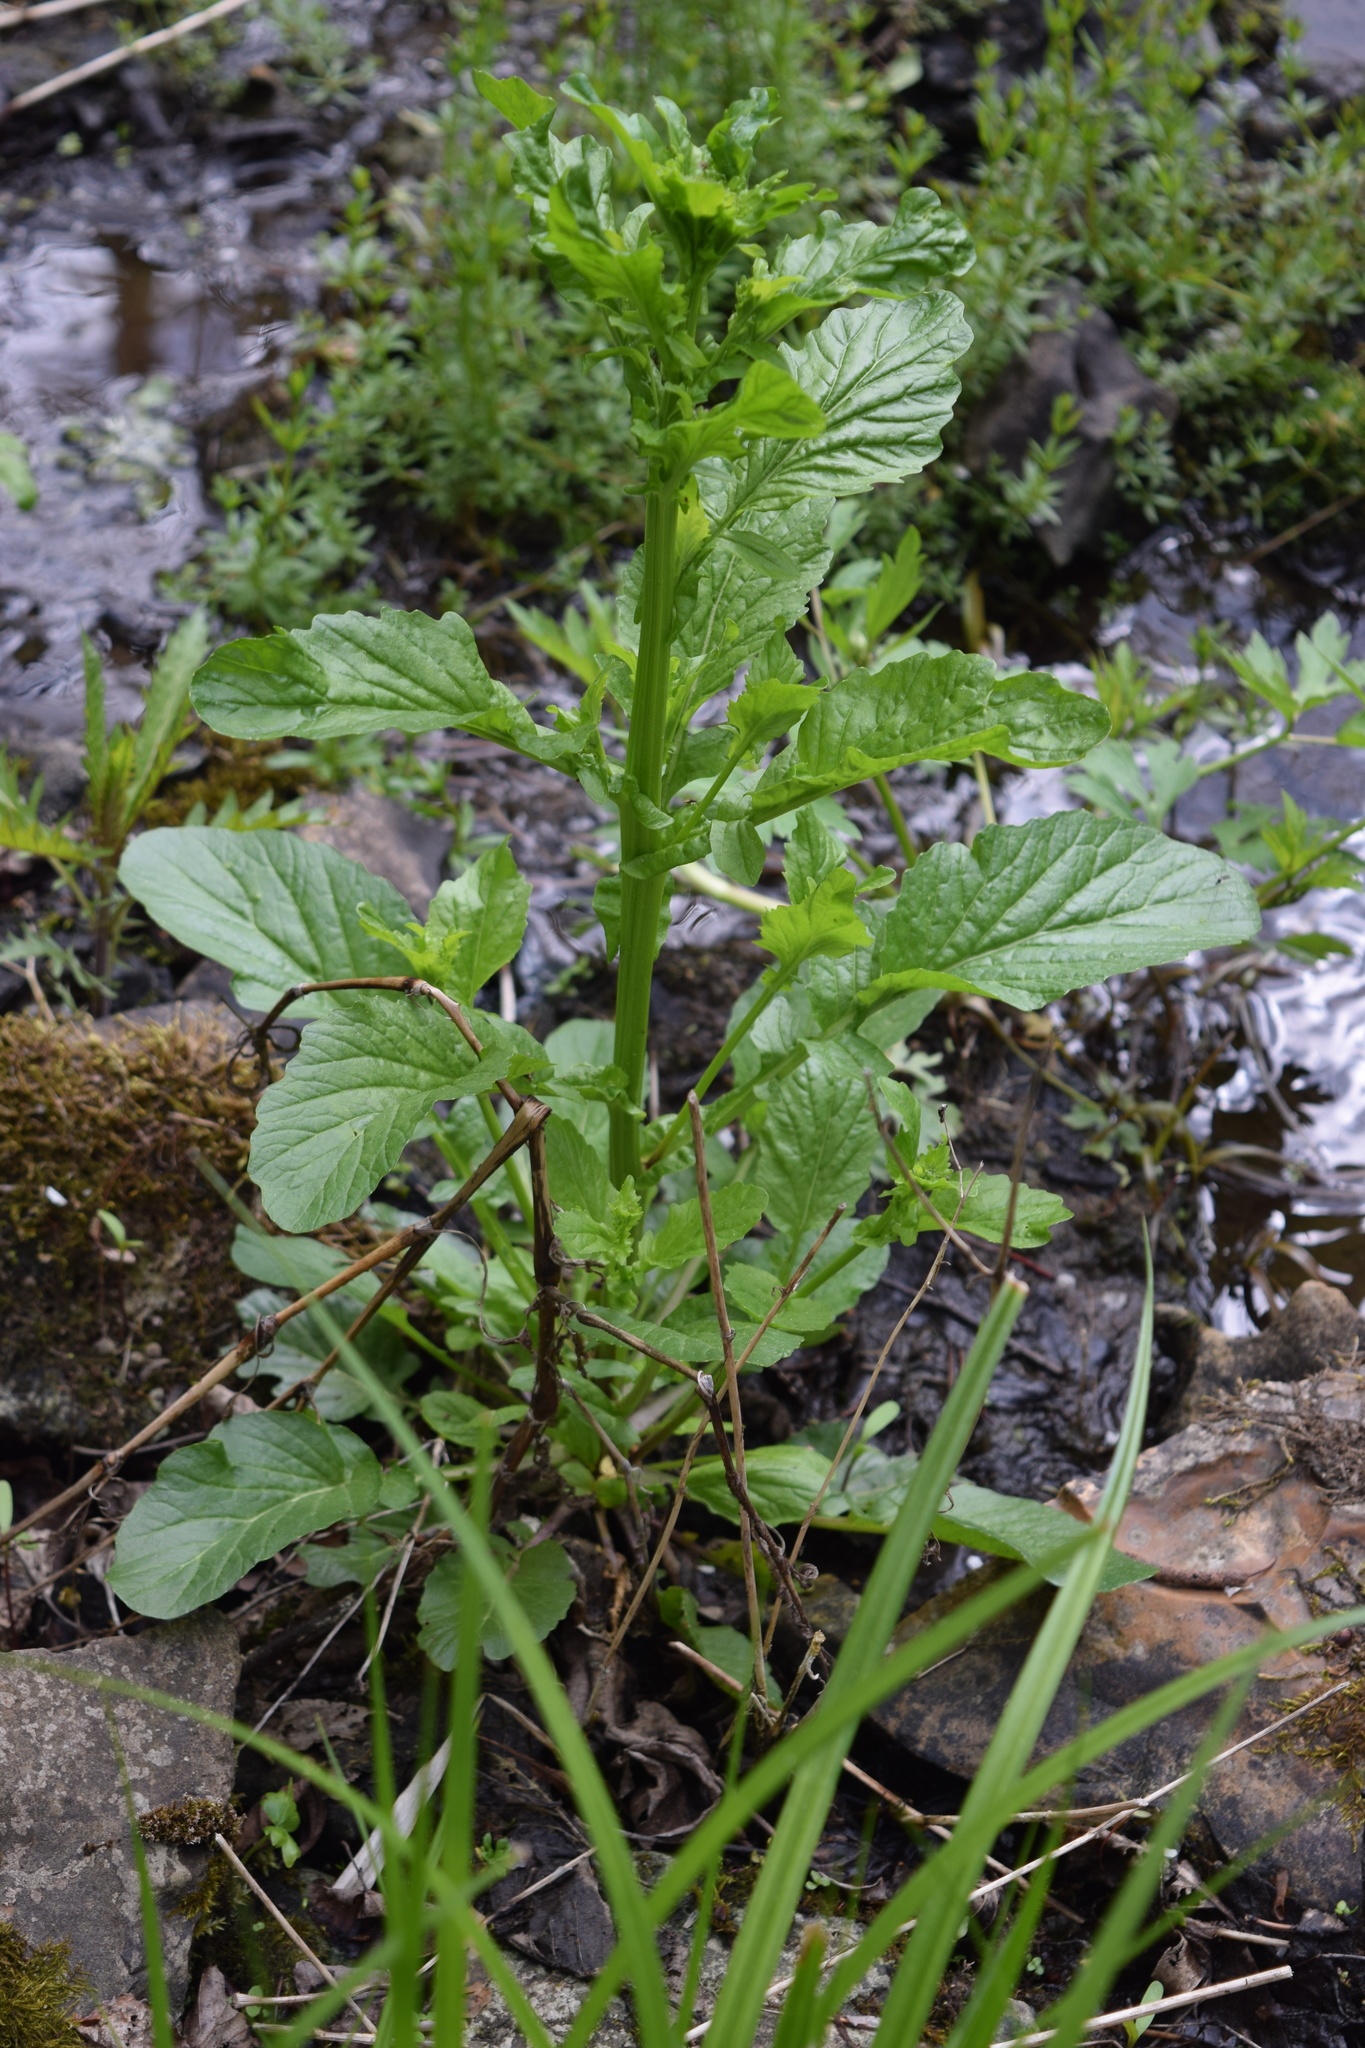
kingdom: Plantae
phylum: Tracheophyta
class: Magnoliopsida
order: Brassicales
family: Brassicaceae
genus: Barbarea
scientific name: Barbarea stricta
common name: Small-flowered winter-cress
